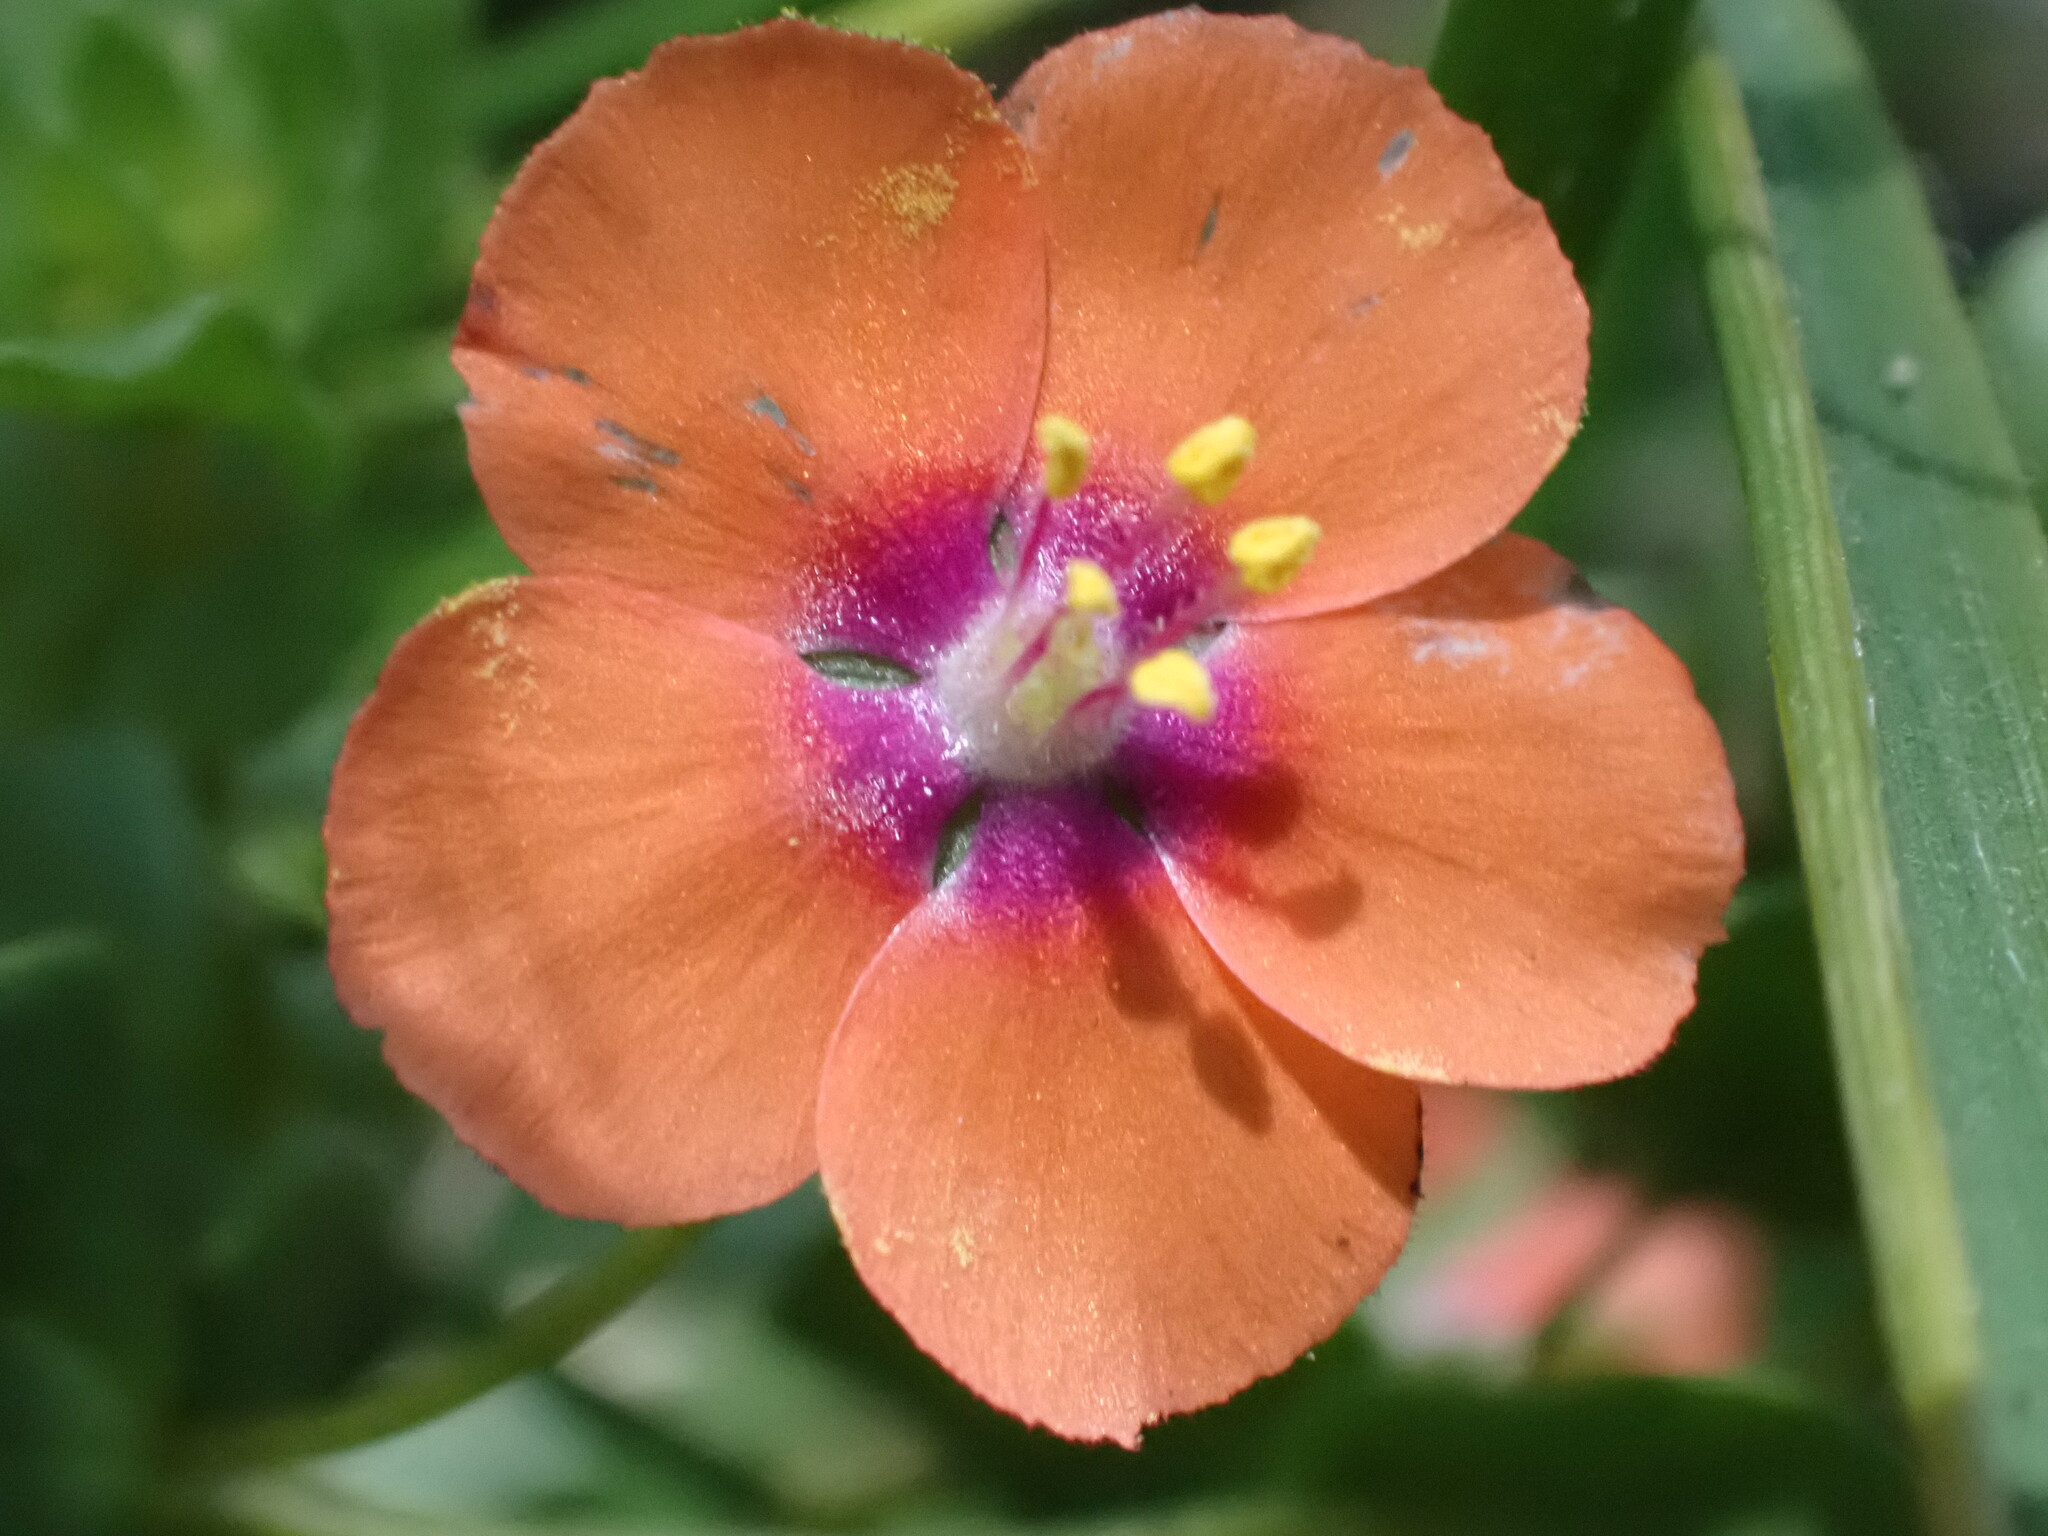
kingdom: Plantae
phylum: Tracheophyta
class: Magnoliopsida
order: Ericales
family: Primulaceae
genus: Lysimachia
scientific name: Lysimachia arvensis
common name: Scarlet pimpernel
